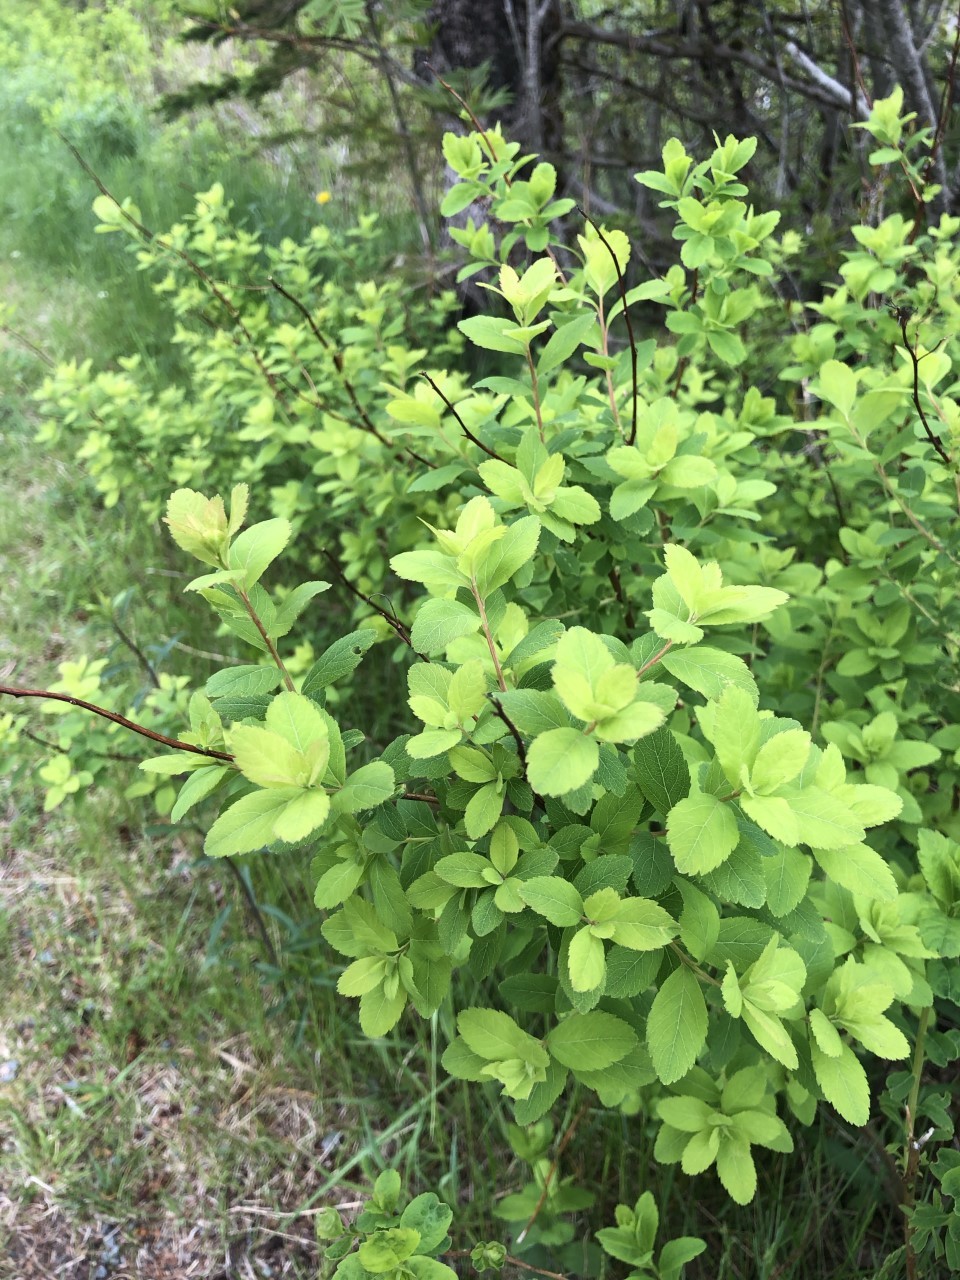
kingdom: Plantae
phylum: Tracheophyta
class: Magnoliopsida
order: Rosales
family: Rosaceae
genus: Spiraea
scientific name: Spiraea alba
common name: Pale bridewort
